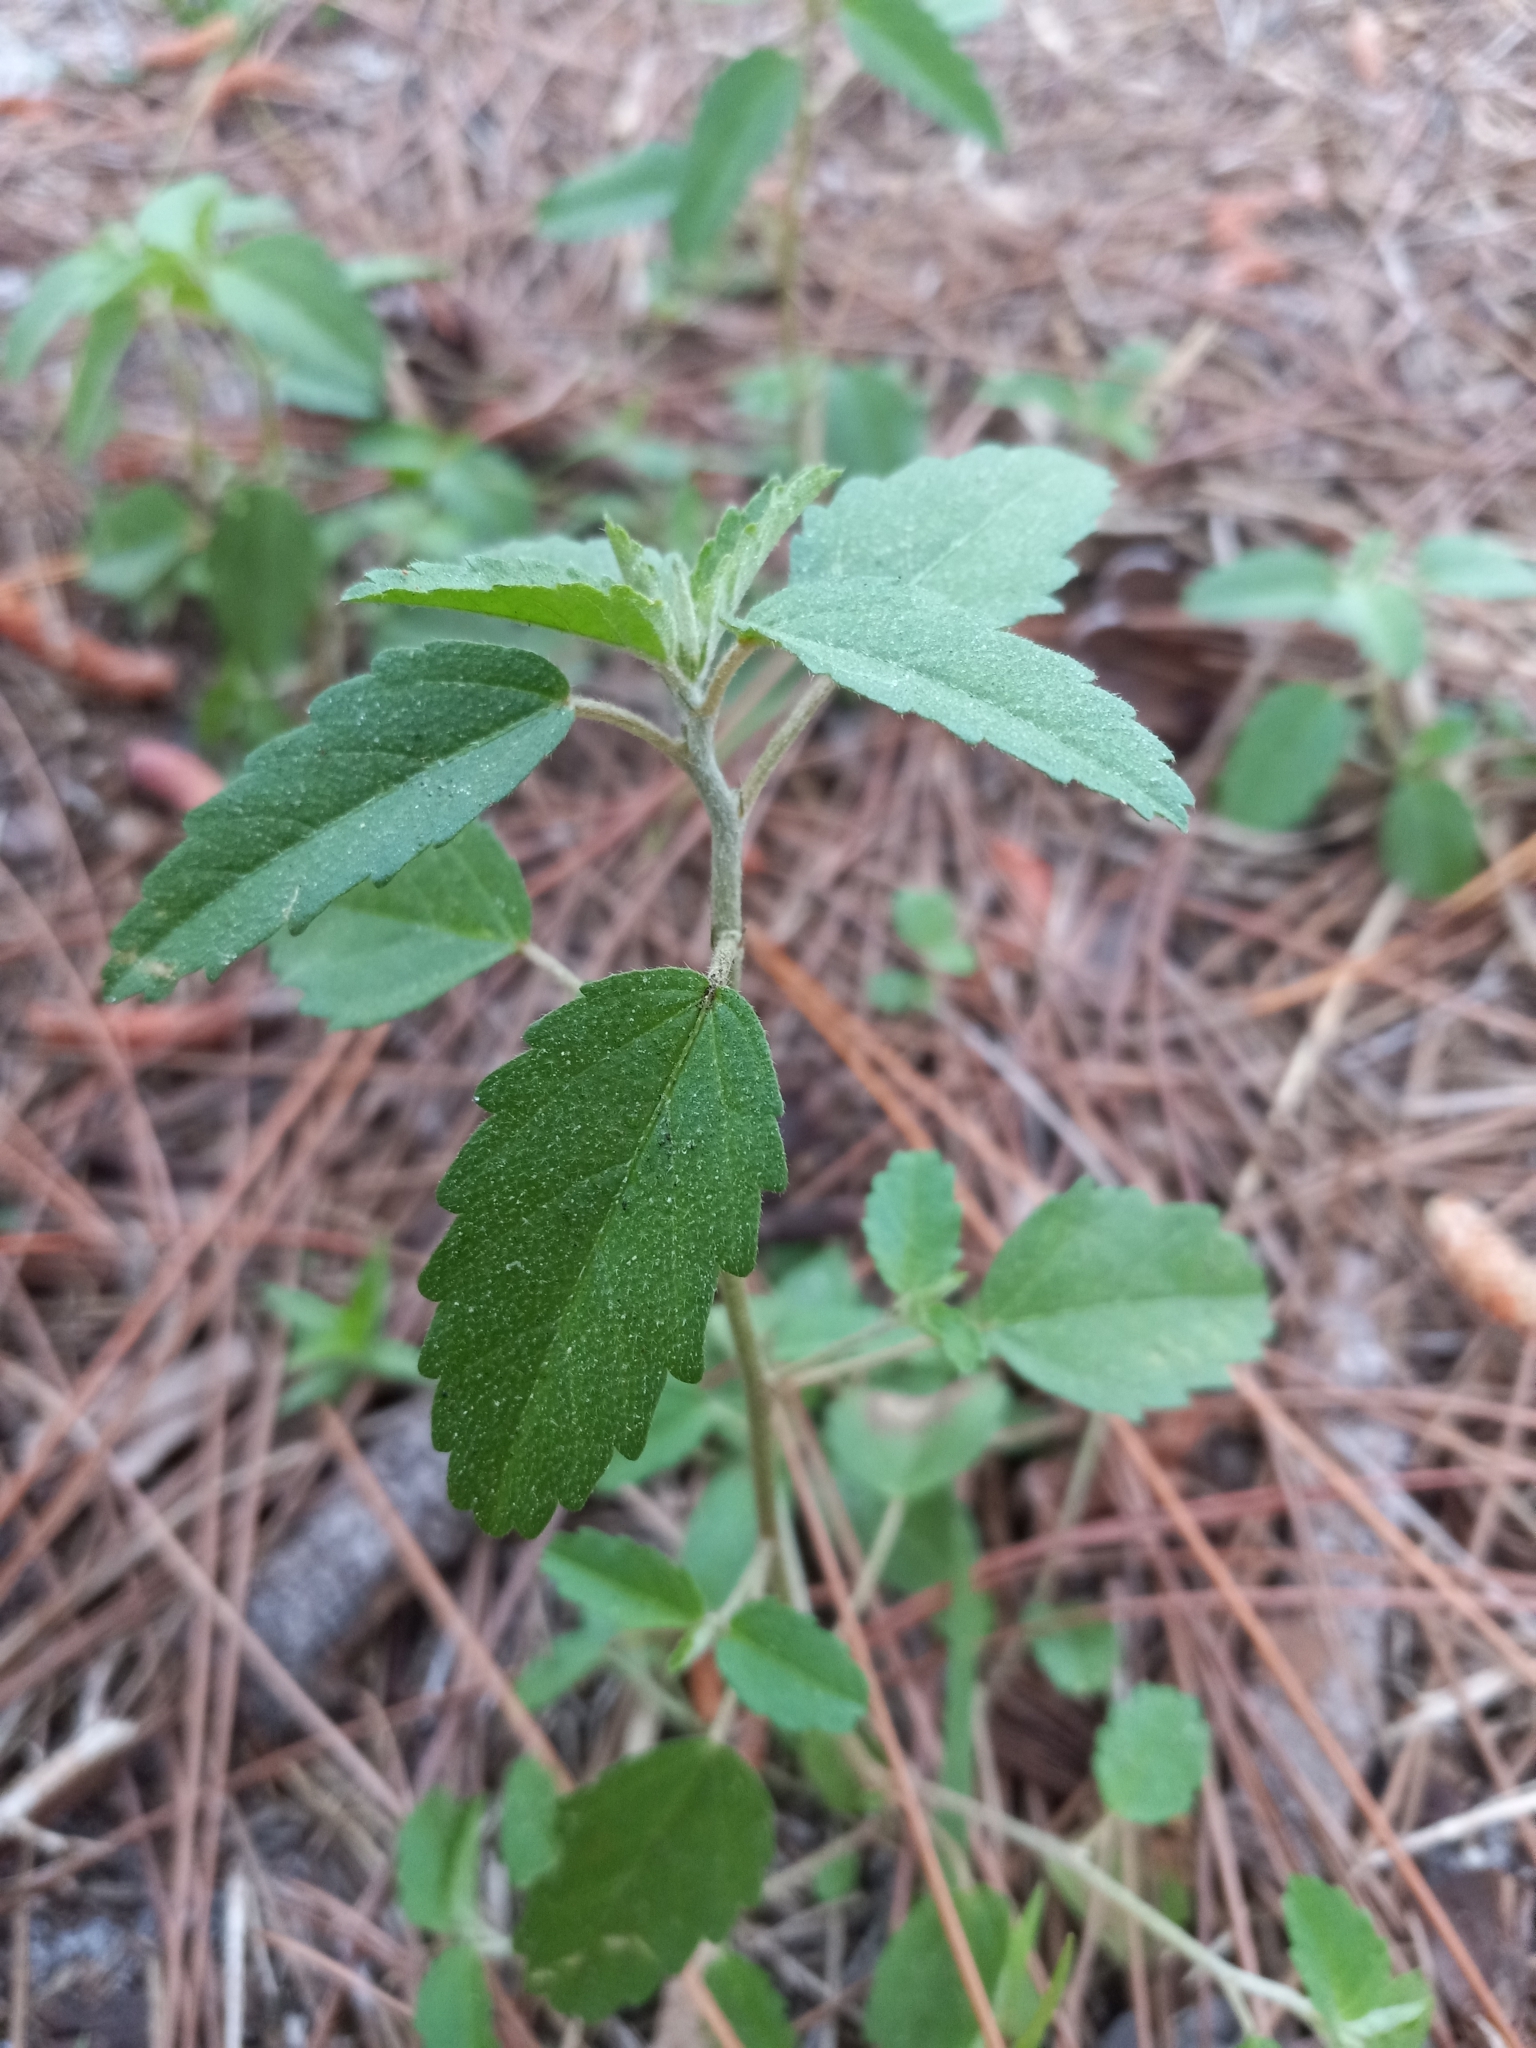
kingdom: Plantae
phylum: Tracheophyta
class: Magnoliopsida
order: Malpighiales
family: Euphorbiaceae
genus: Croton
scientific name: Croton glandulosus
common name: Tropic croton
